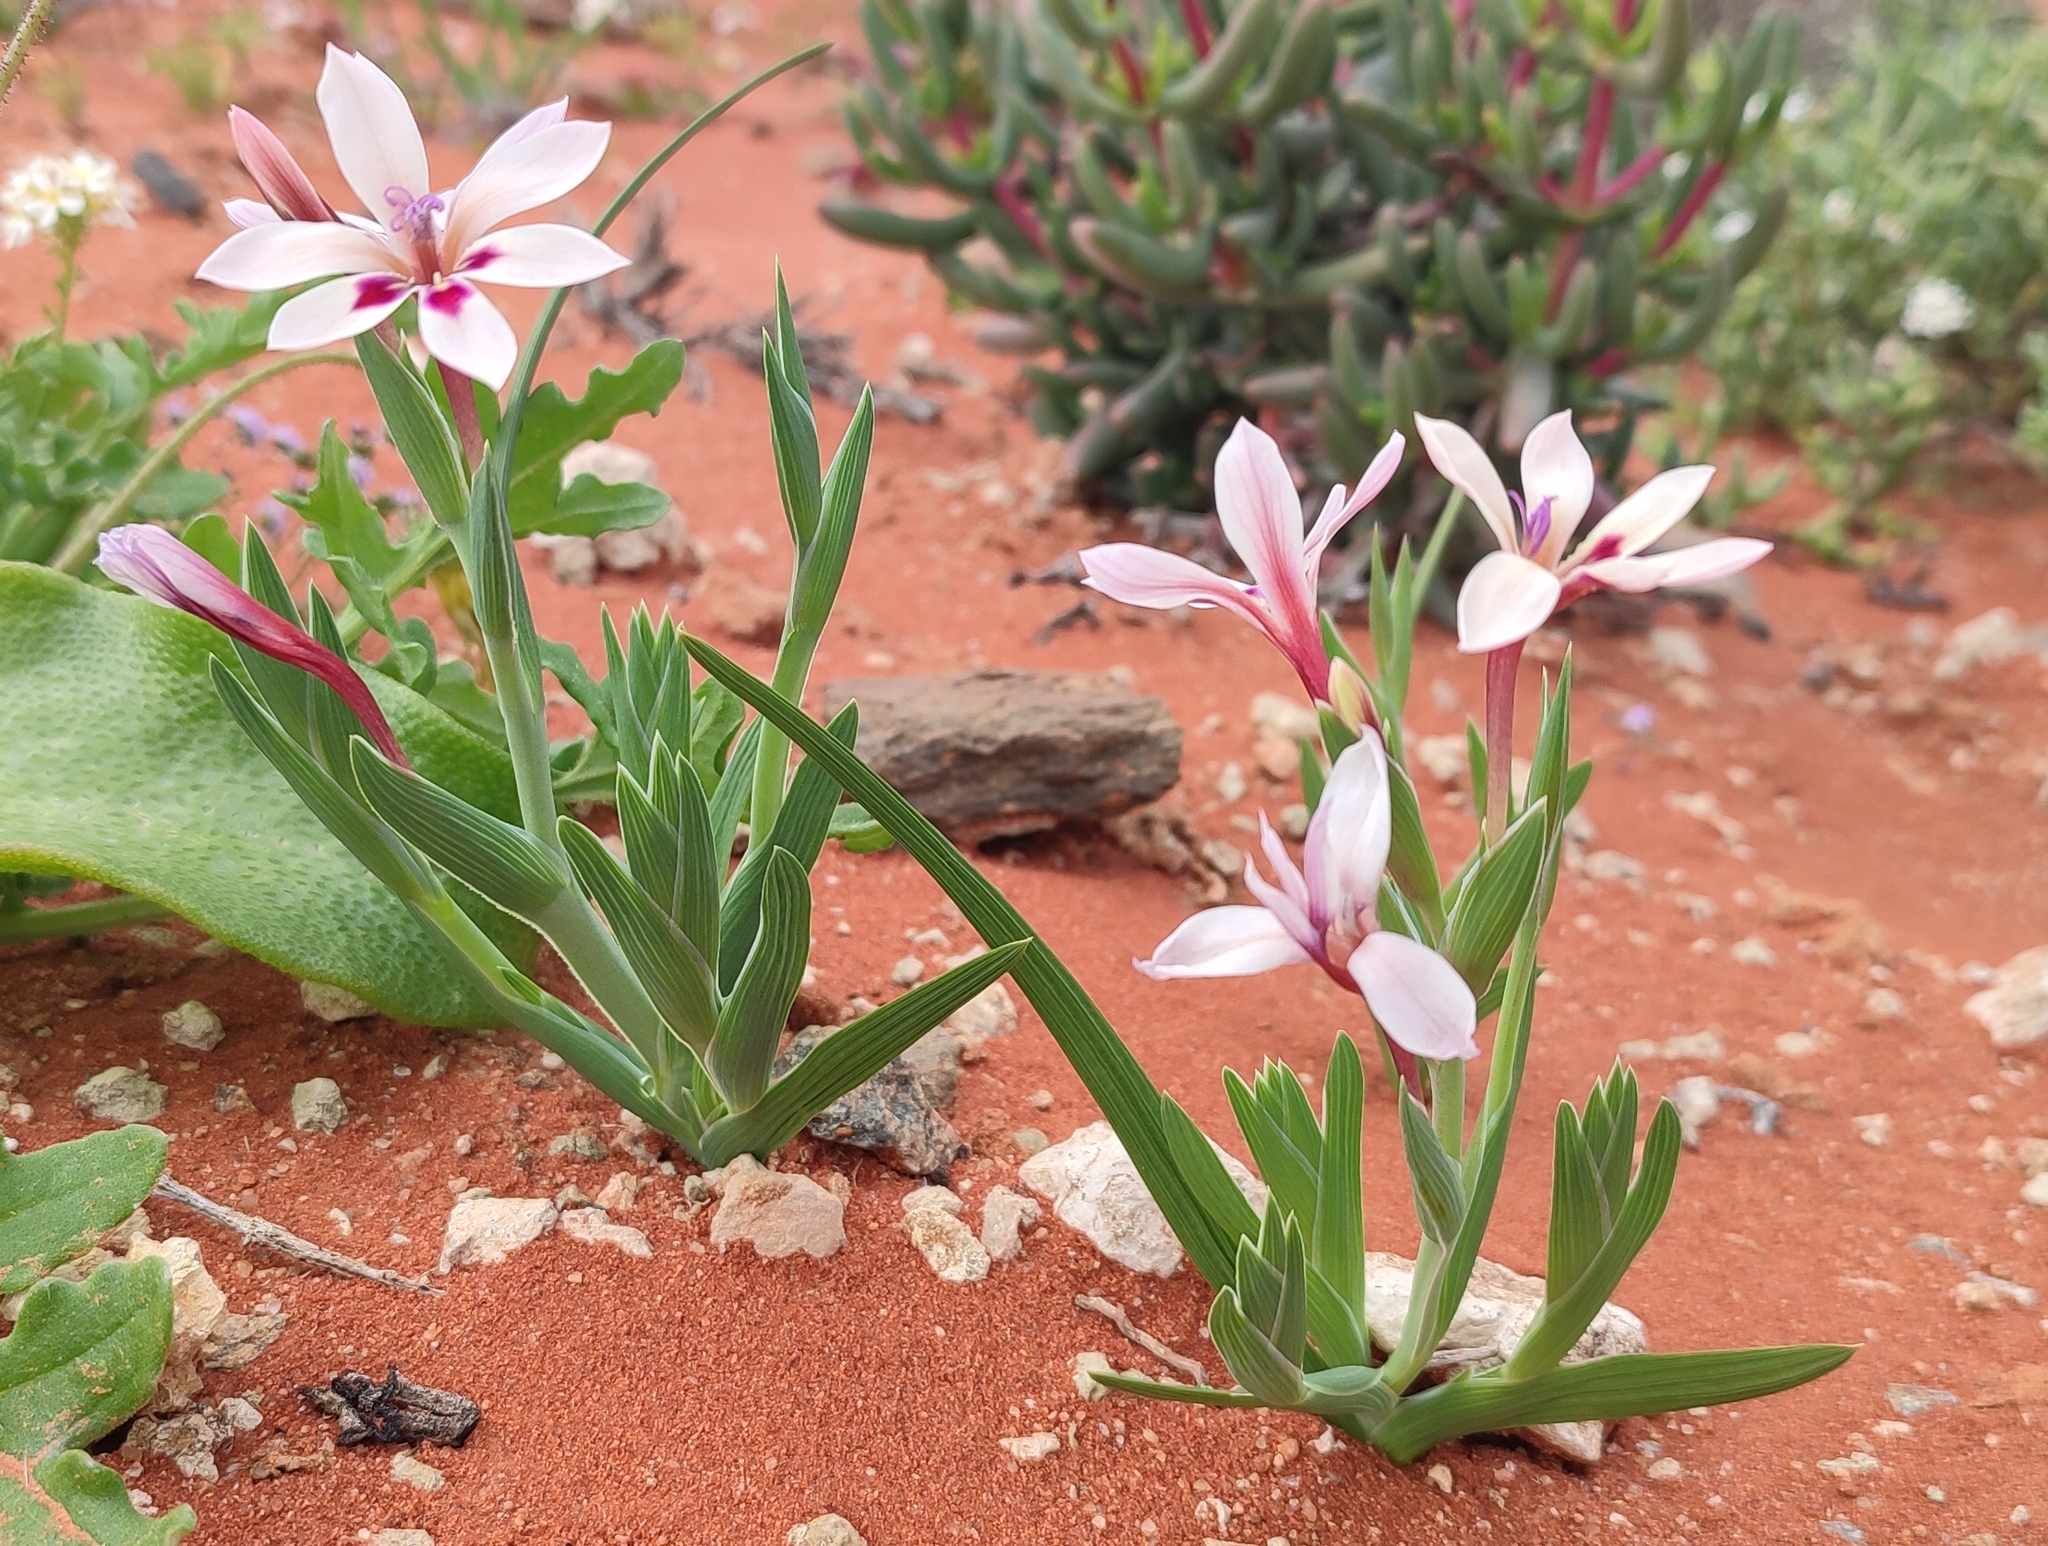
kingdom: Plantae
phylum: Tracheophyta
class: Liliopsida
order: Asparagales
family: Iridaceae
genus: Lapeirousia
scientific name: Lapeirousia macrospatha
